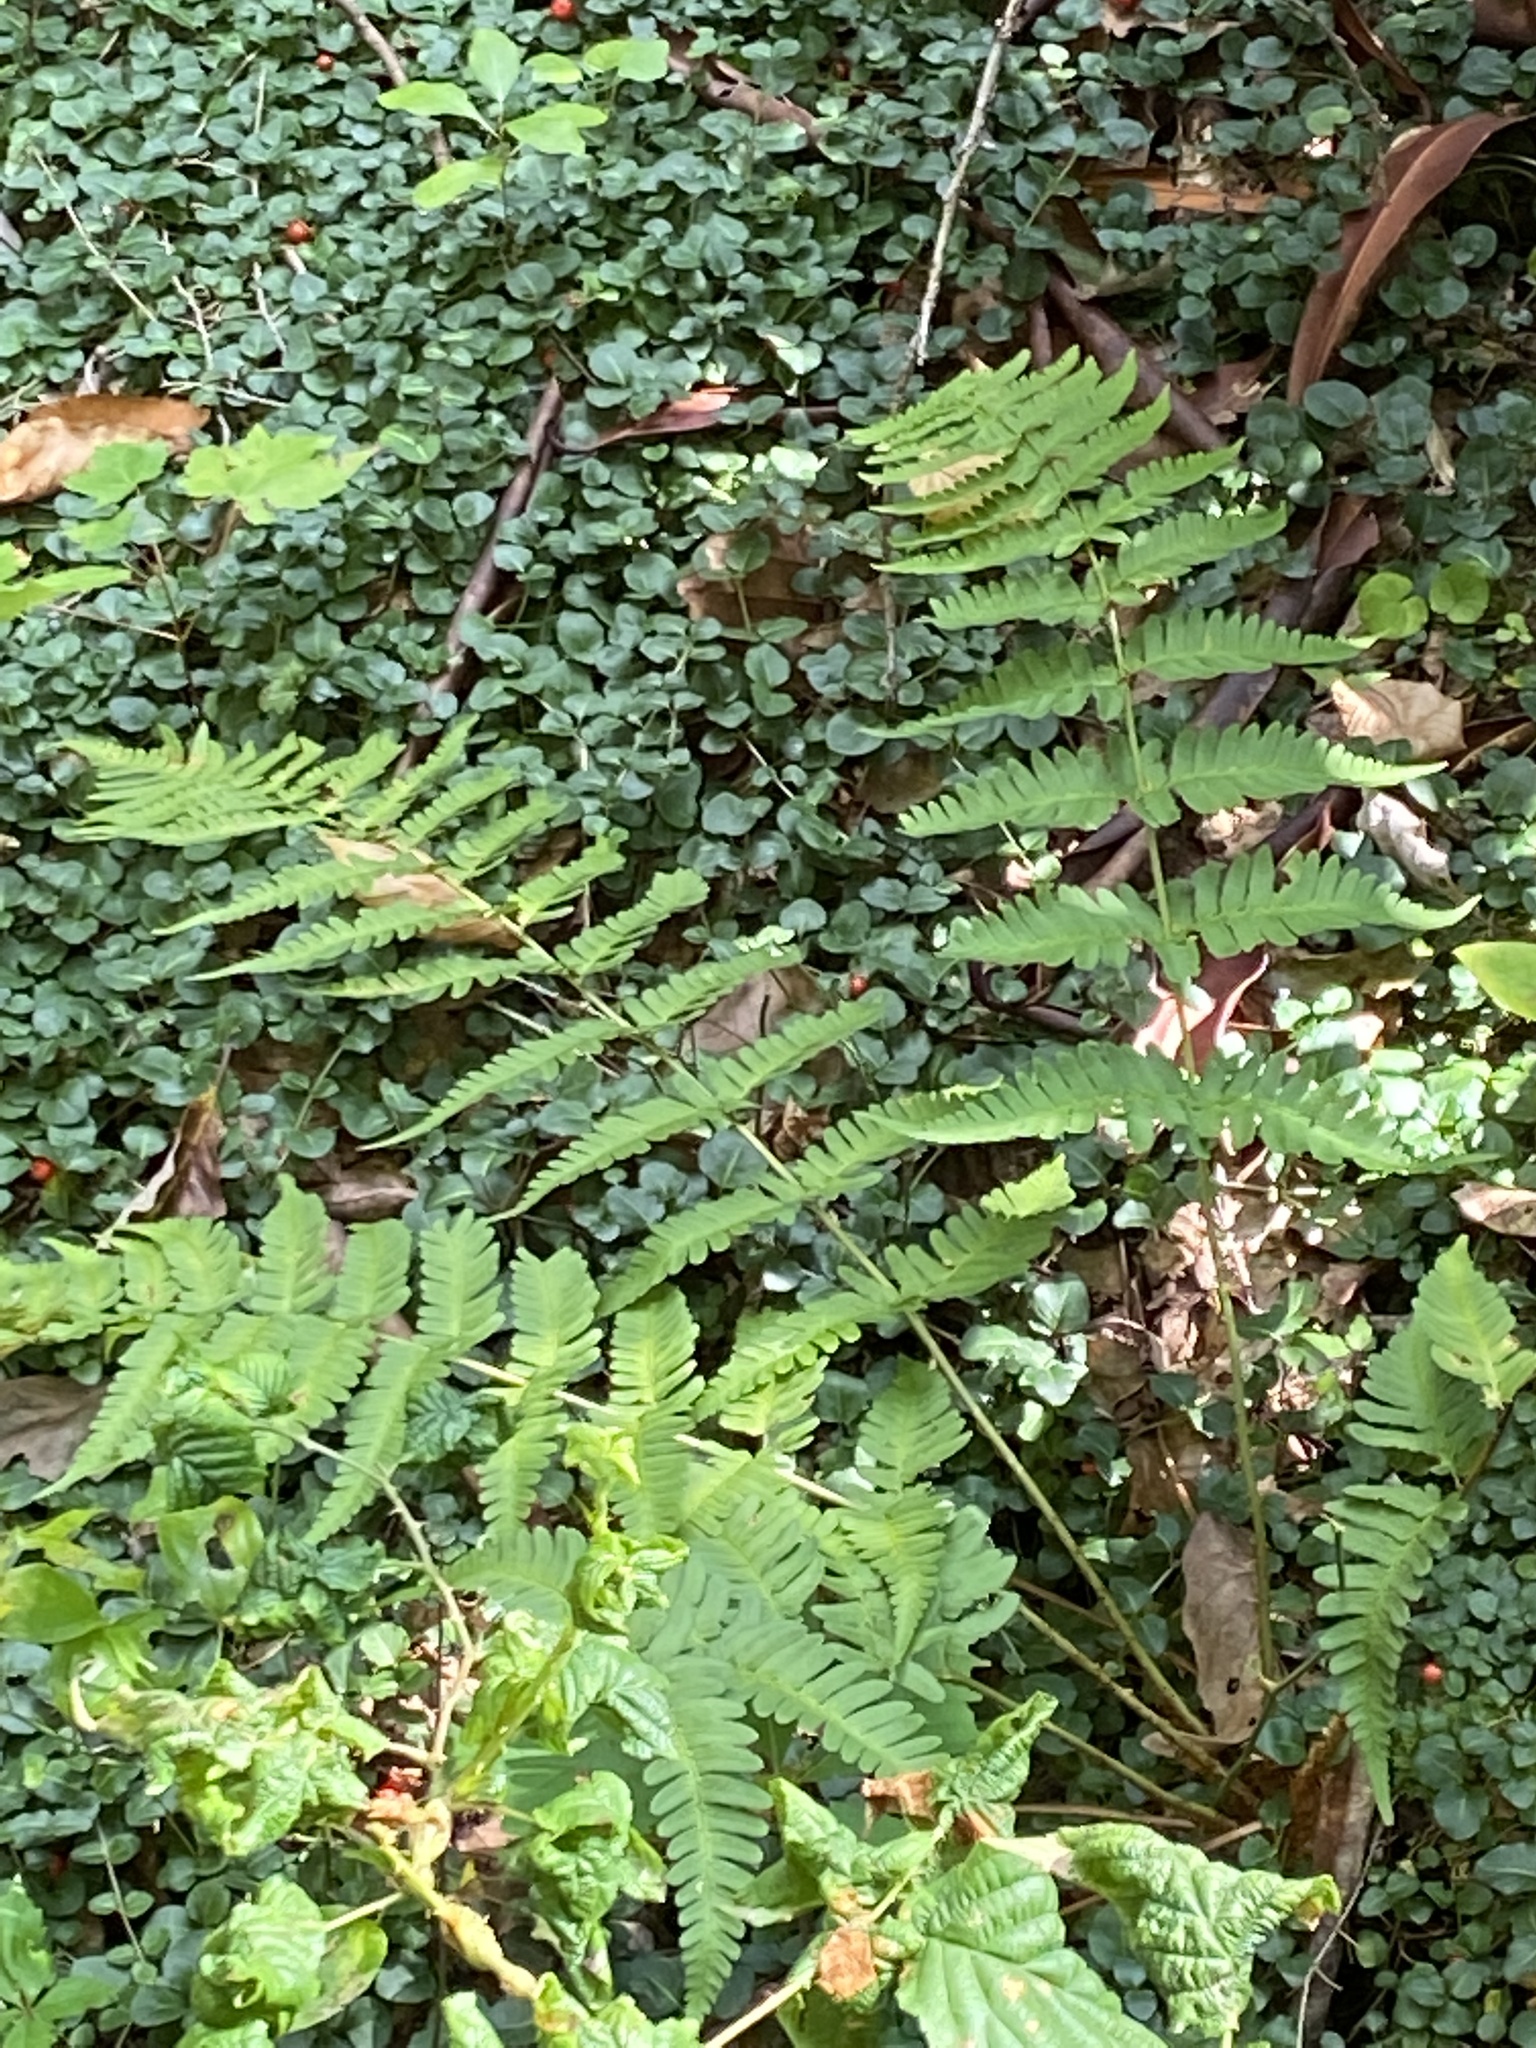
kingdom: Plantae
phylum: Tracheophyta
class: Polypodiopsida
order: Polypodiales
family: Dryopteridaceae
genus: Dryopteris
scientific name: Dryopteris marginalis
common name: Marginal wood fern
